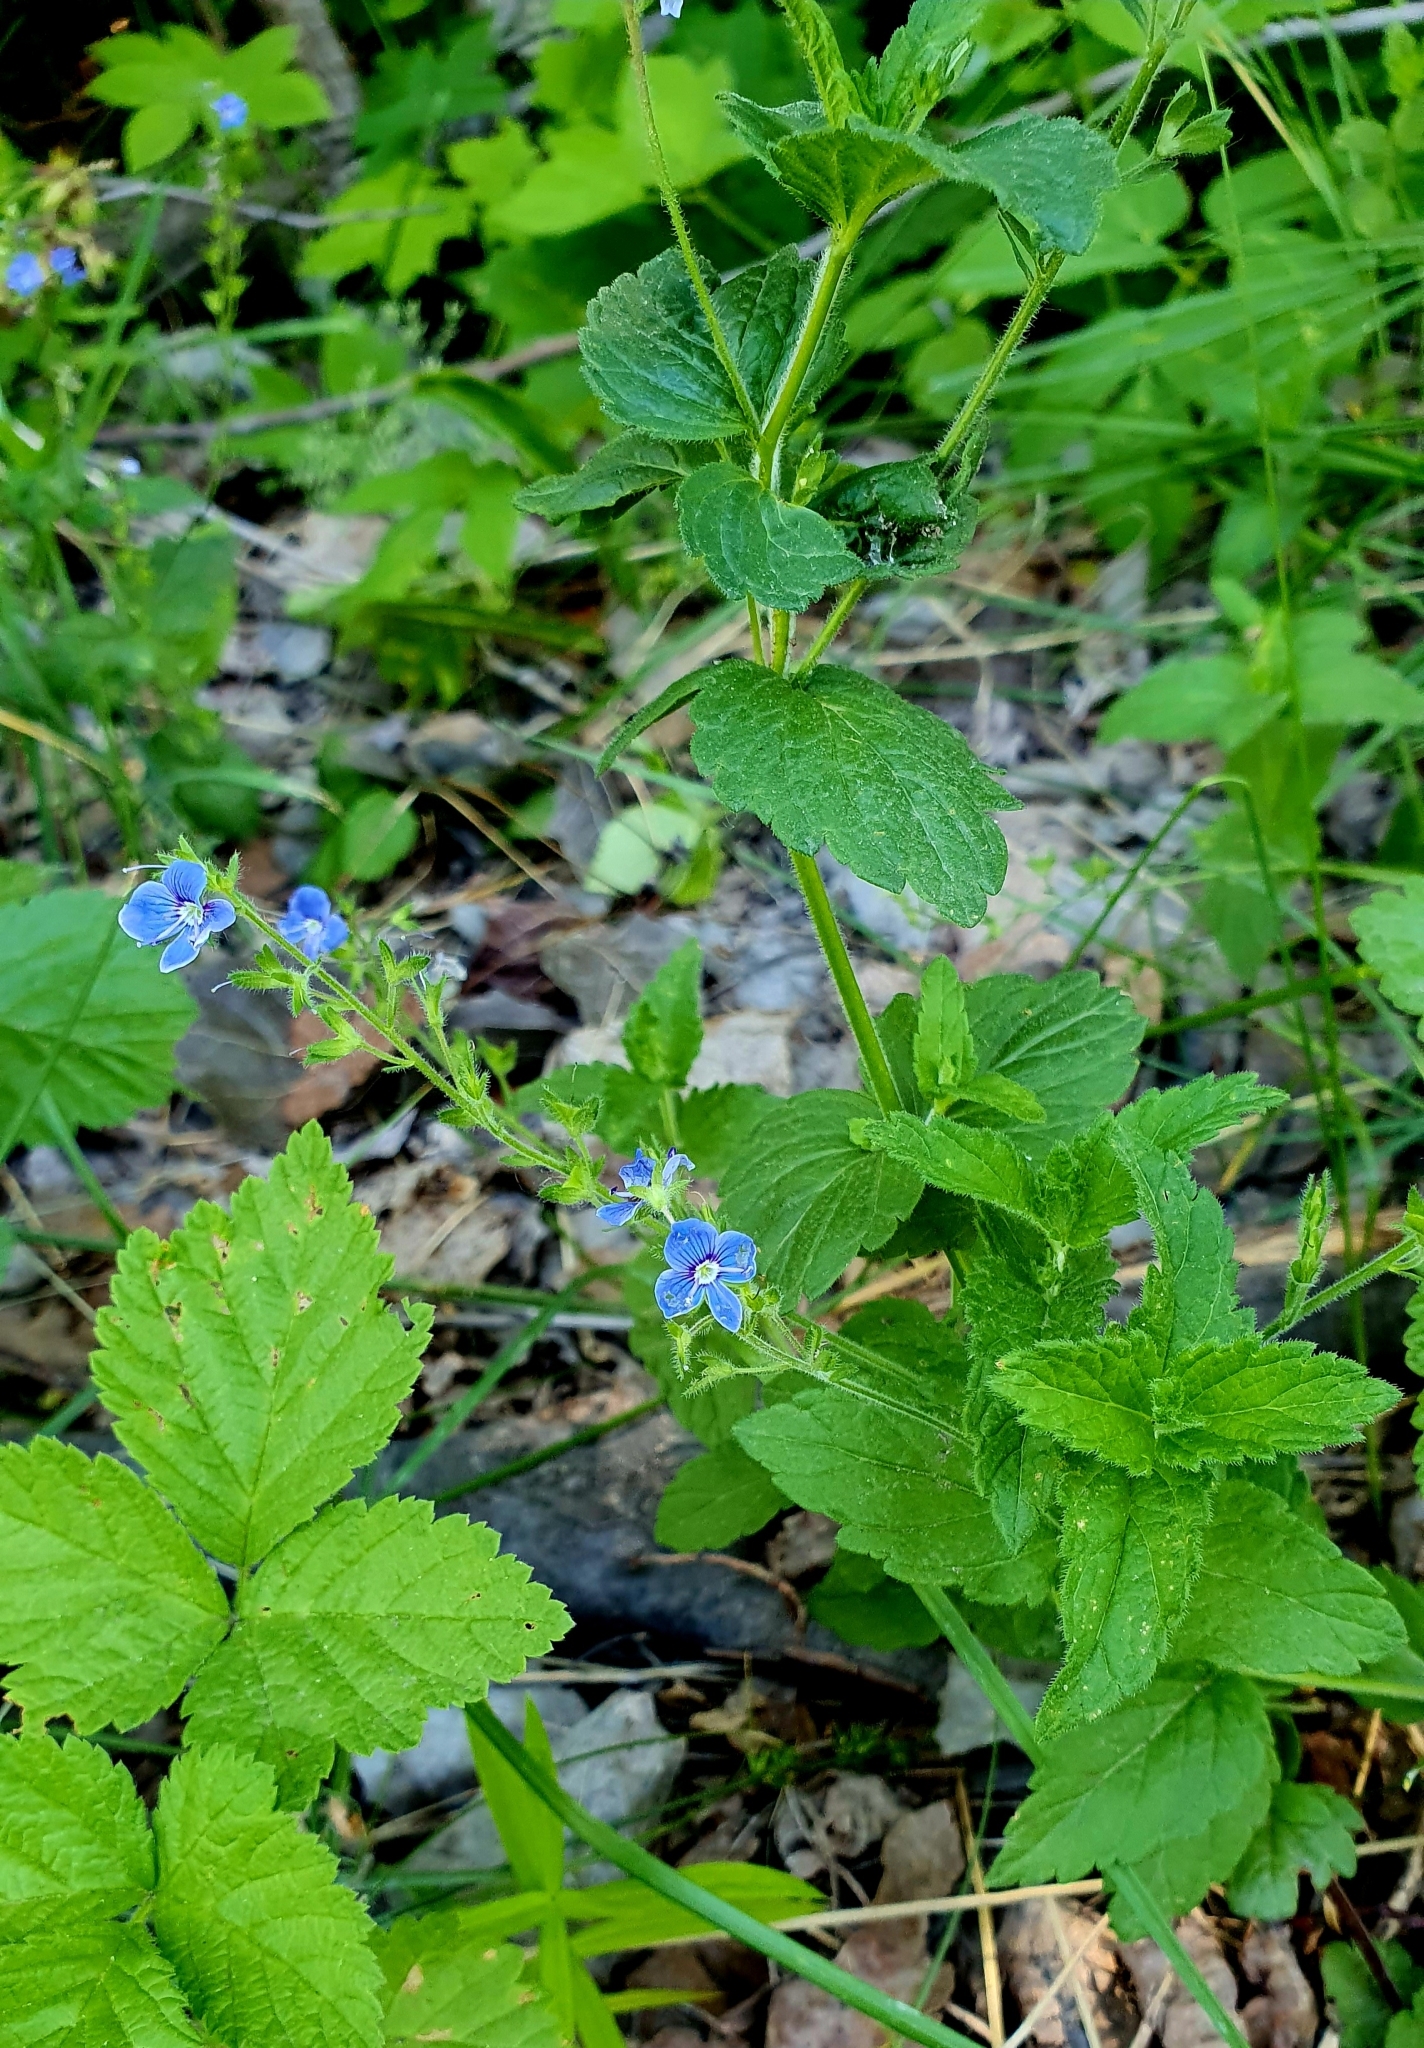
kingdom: Plantae
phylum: Tracheophyta
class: Magnoliopsida
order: Lamiales
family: Plantaginaceae
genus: Veronica
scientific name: Veronica chamaedrys
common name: Germander speedwell
